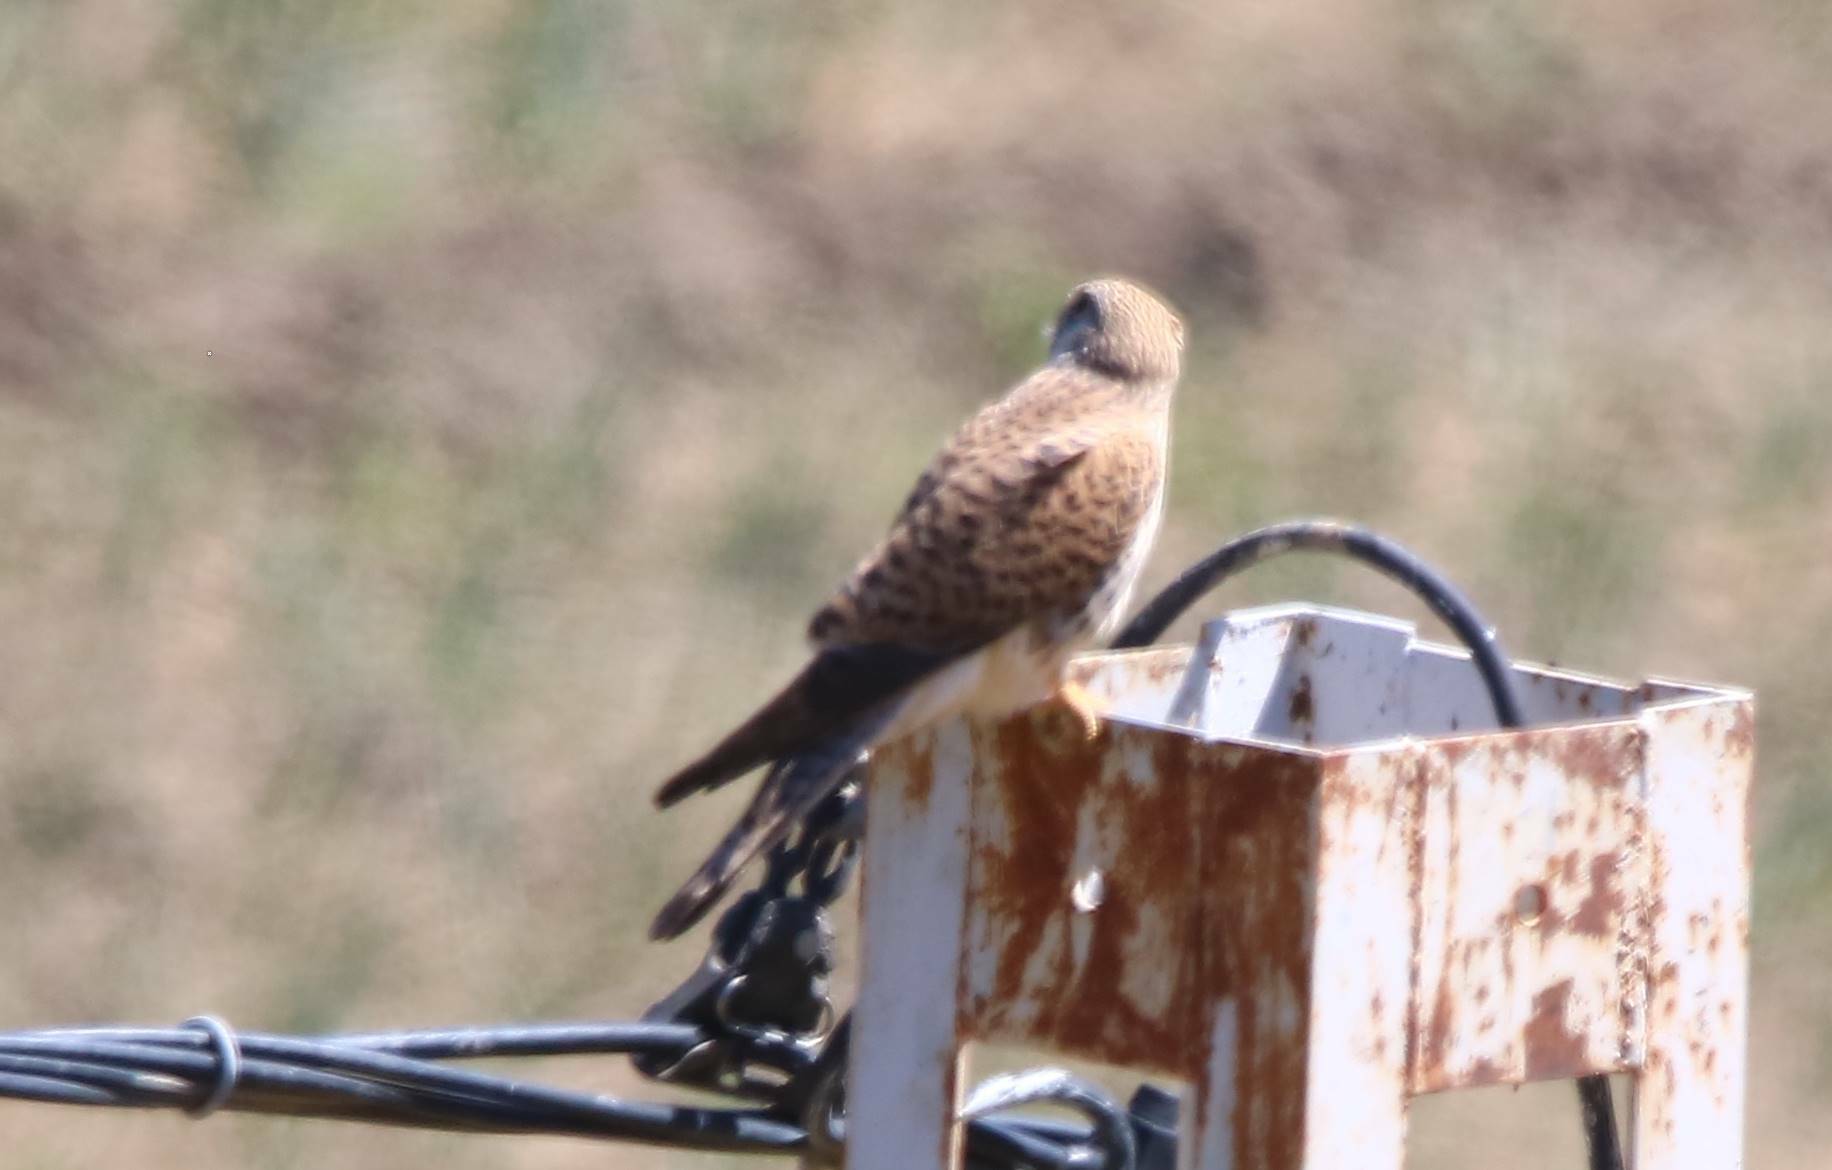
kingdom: Animalia
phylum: Chordata
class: Aves
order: Falconiformes
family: Falconidae
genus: Falco
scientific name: Falco tinnunculus
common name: Common kestrel
